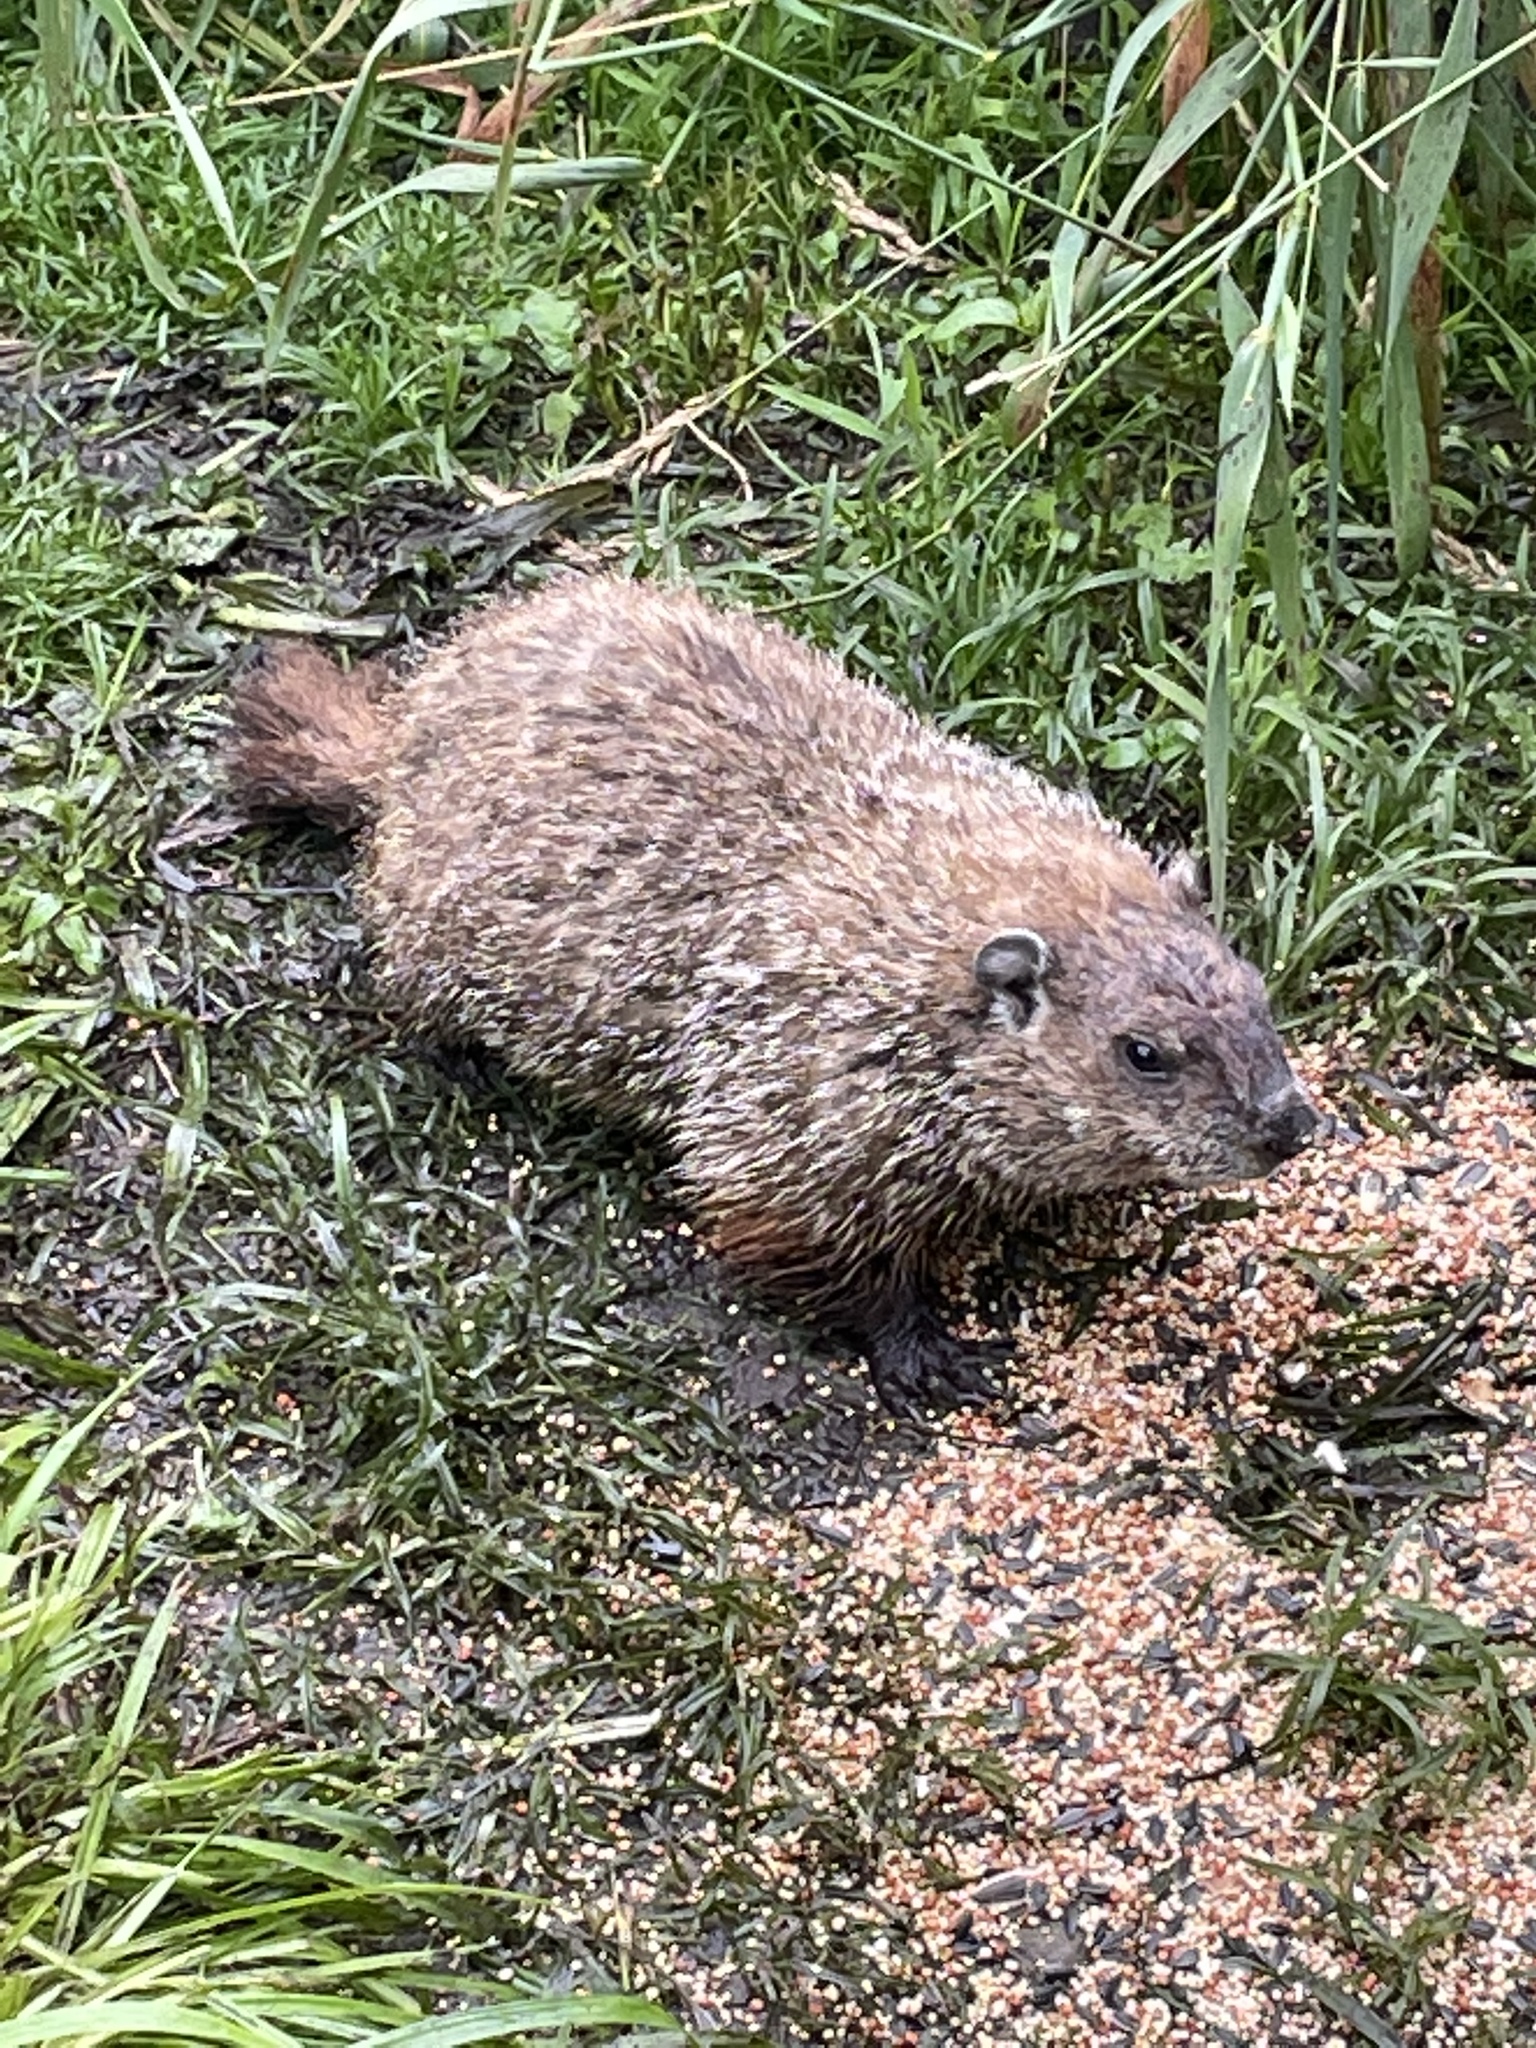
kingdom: Animalia
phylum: Chordata
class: Mammalia
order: Rodentia
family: Sciuridae
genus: Marmota
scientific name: Marmota monax
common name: Groundhog
